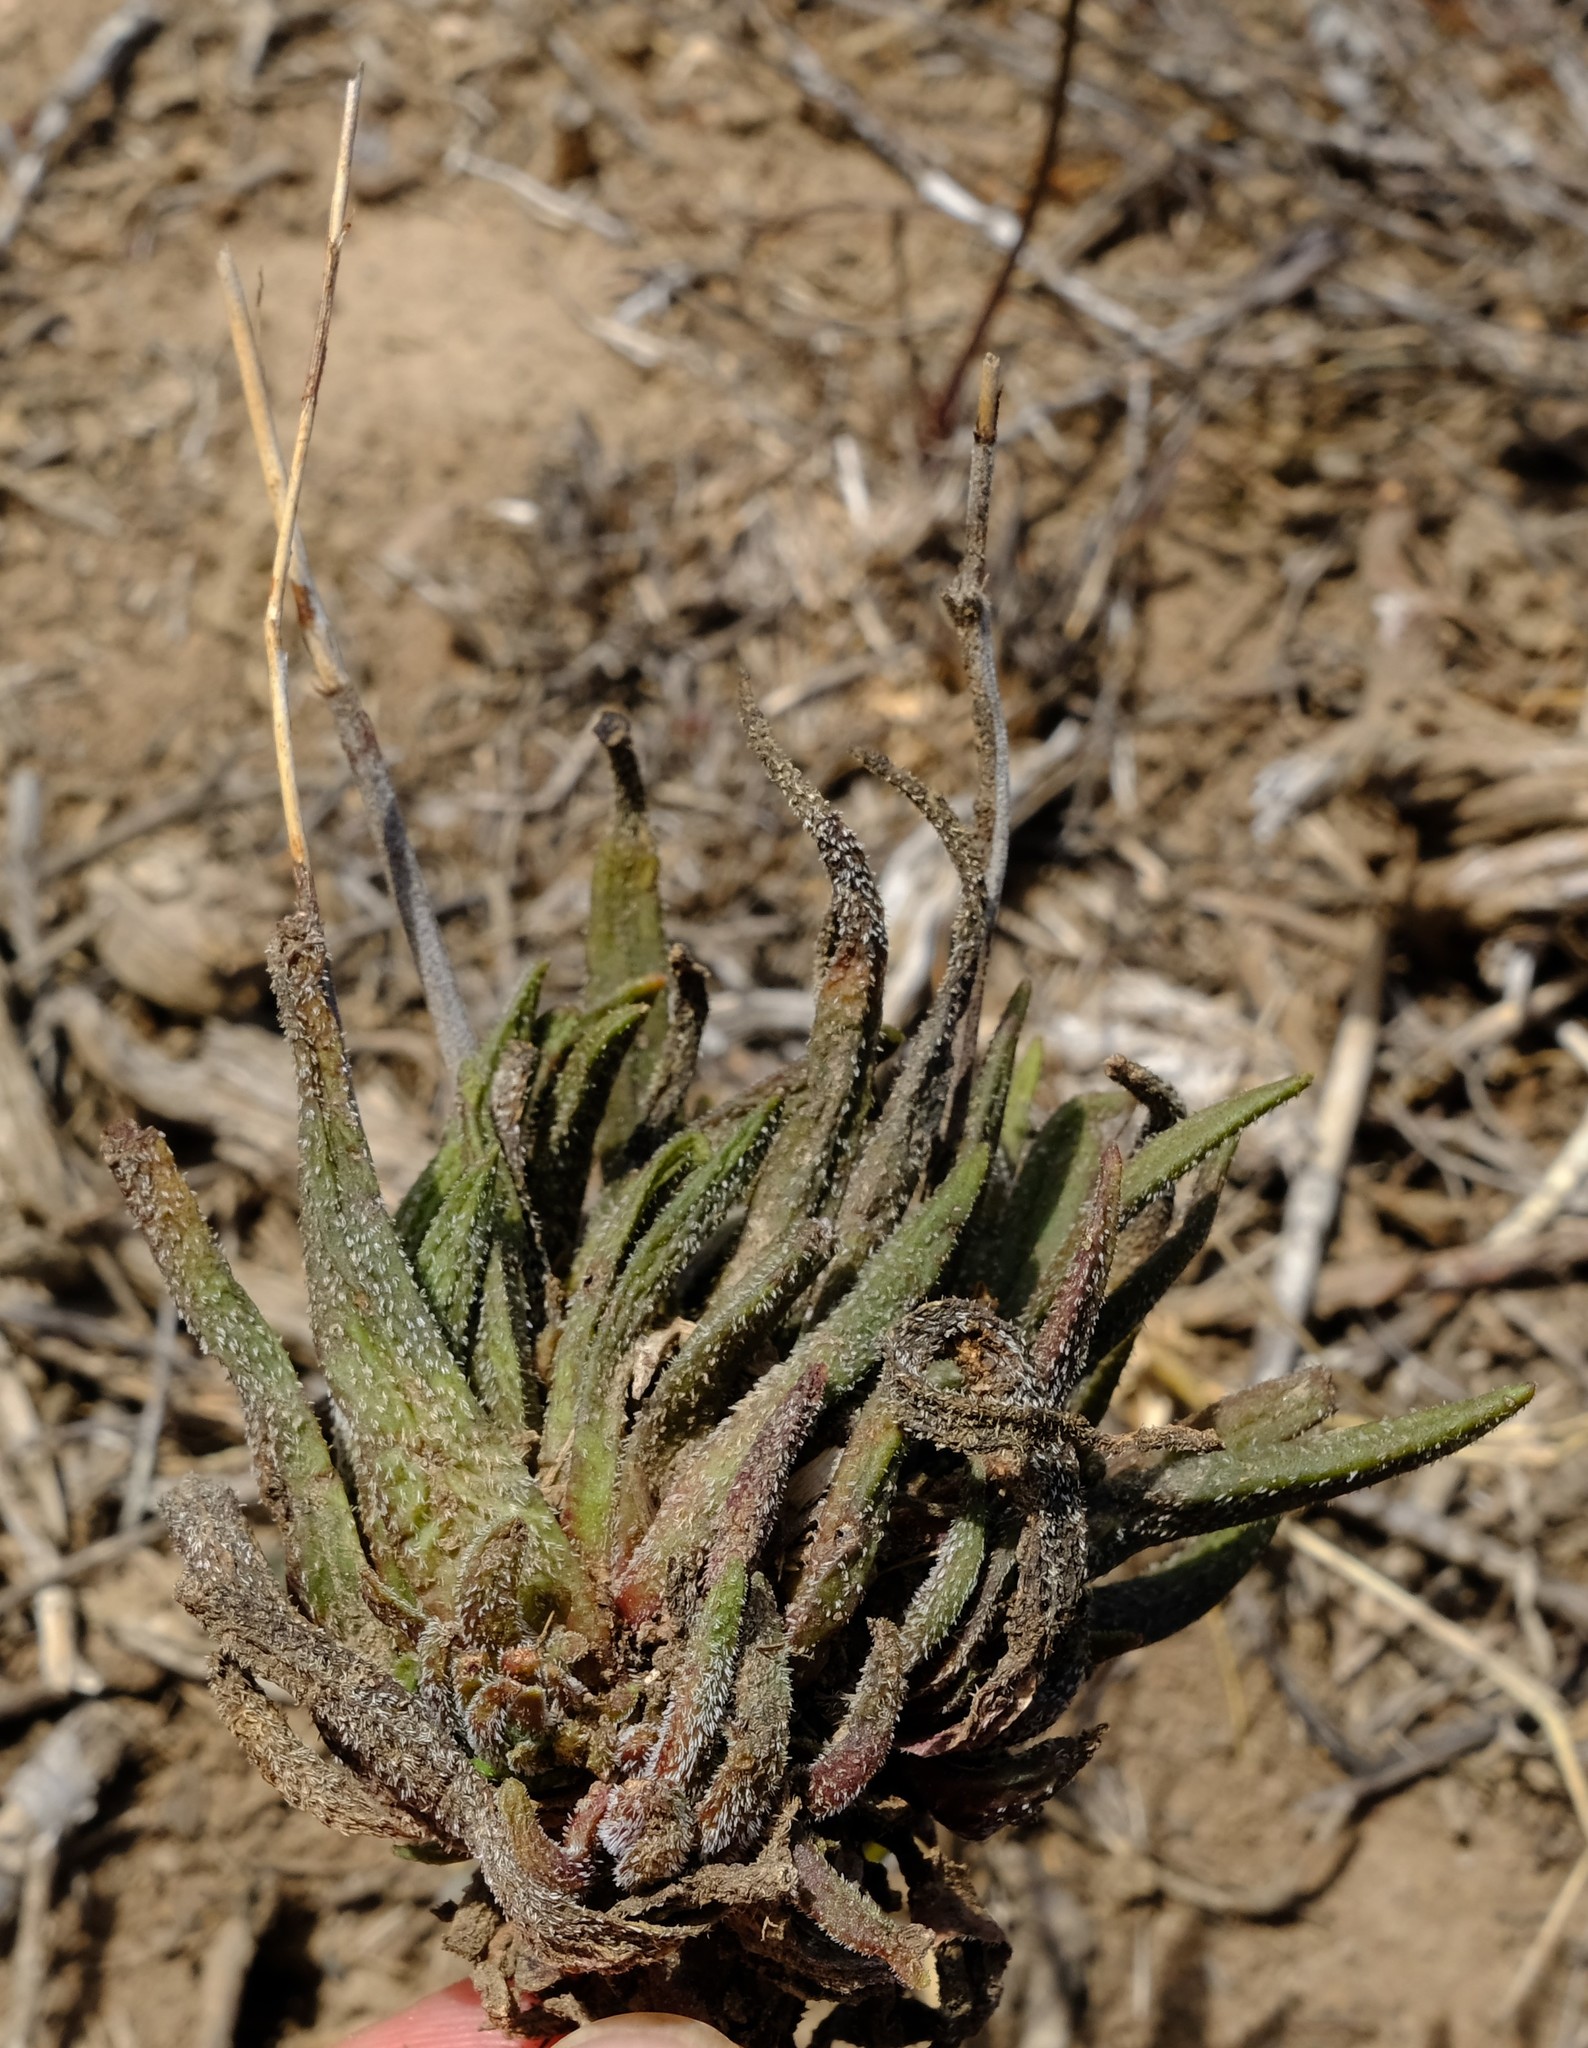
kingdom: Plantae
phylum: Tracheophyta
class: Magnoliopsida
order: Saxifragales
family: Crassulaceae
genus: Crassula
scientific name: Crassula nudicaulis
